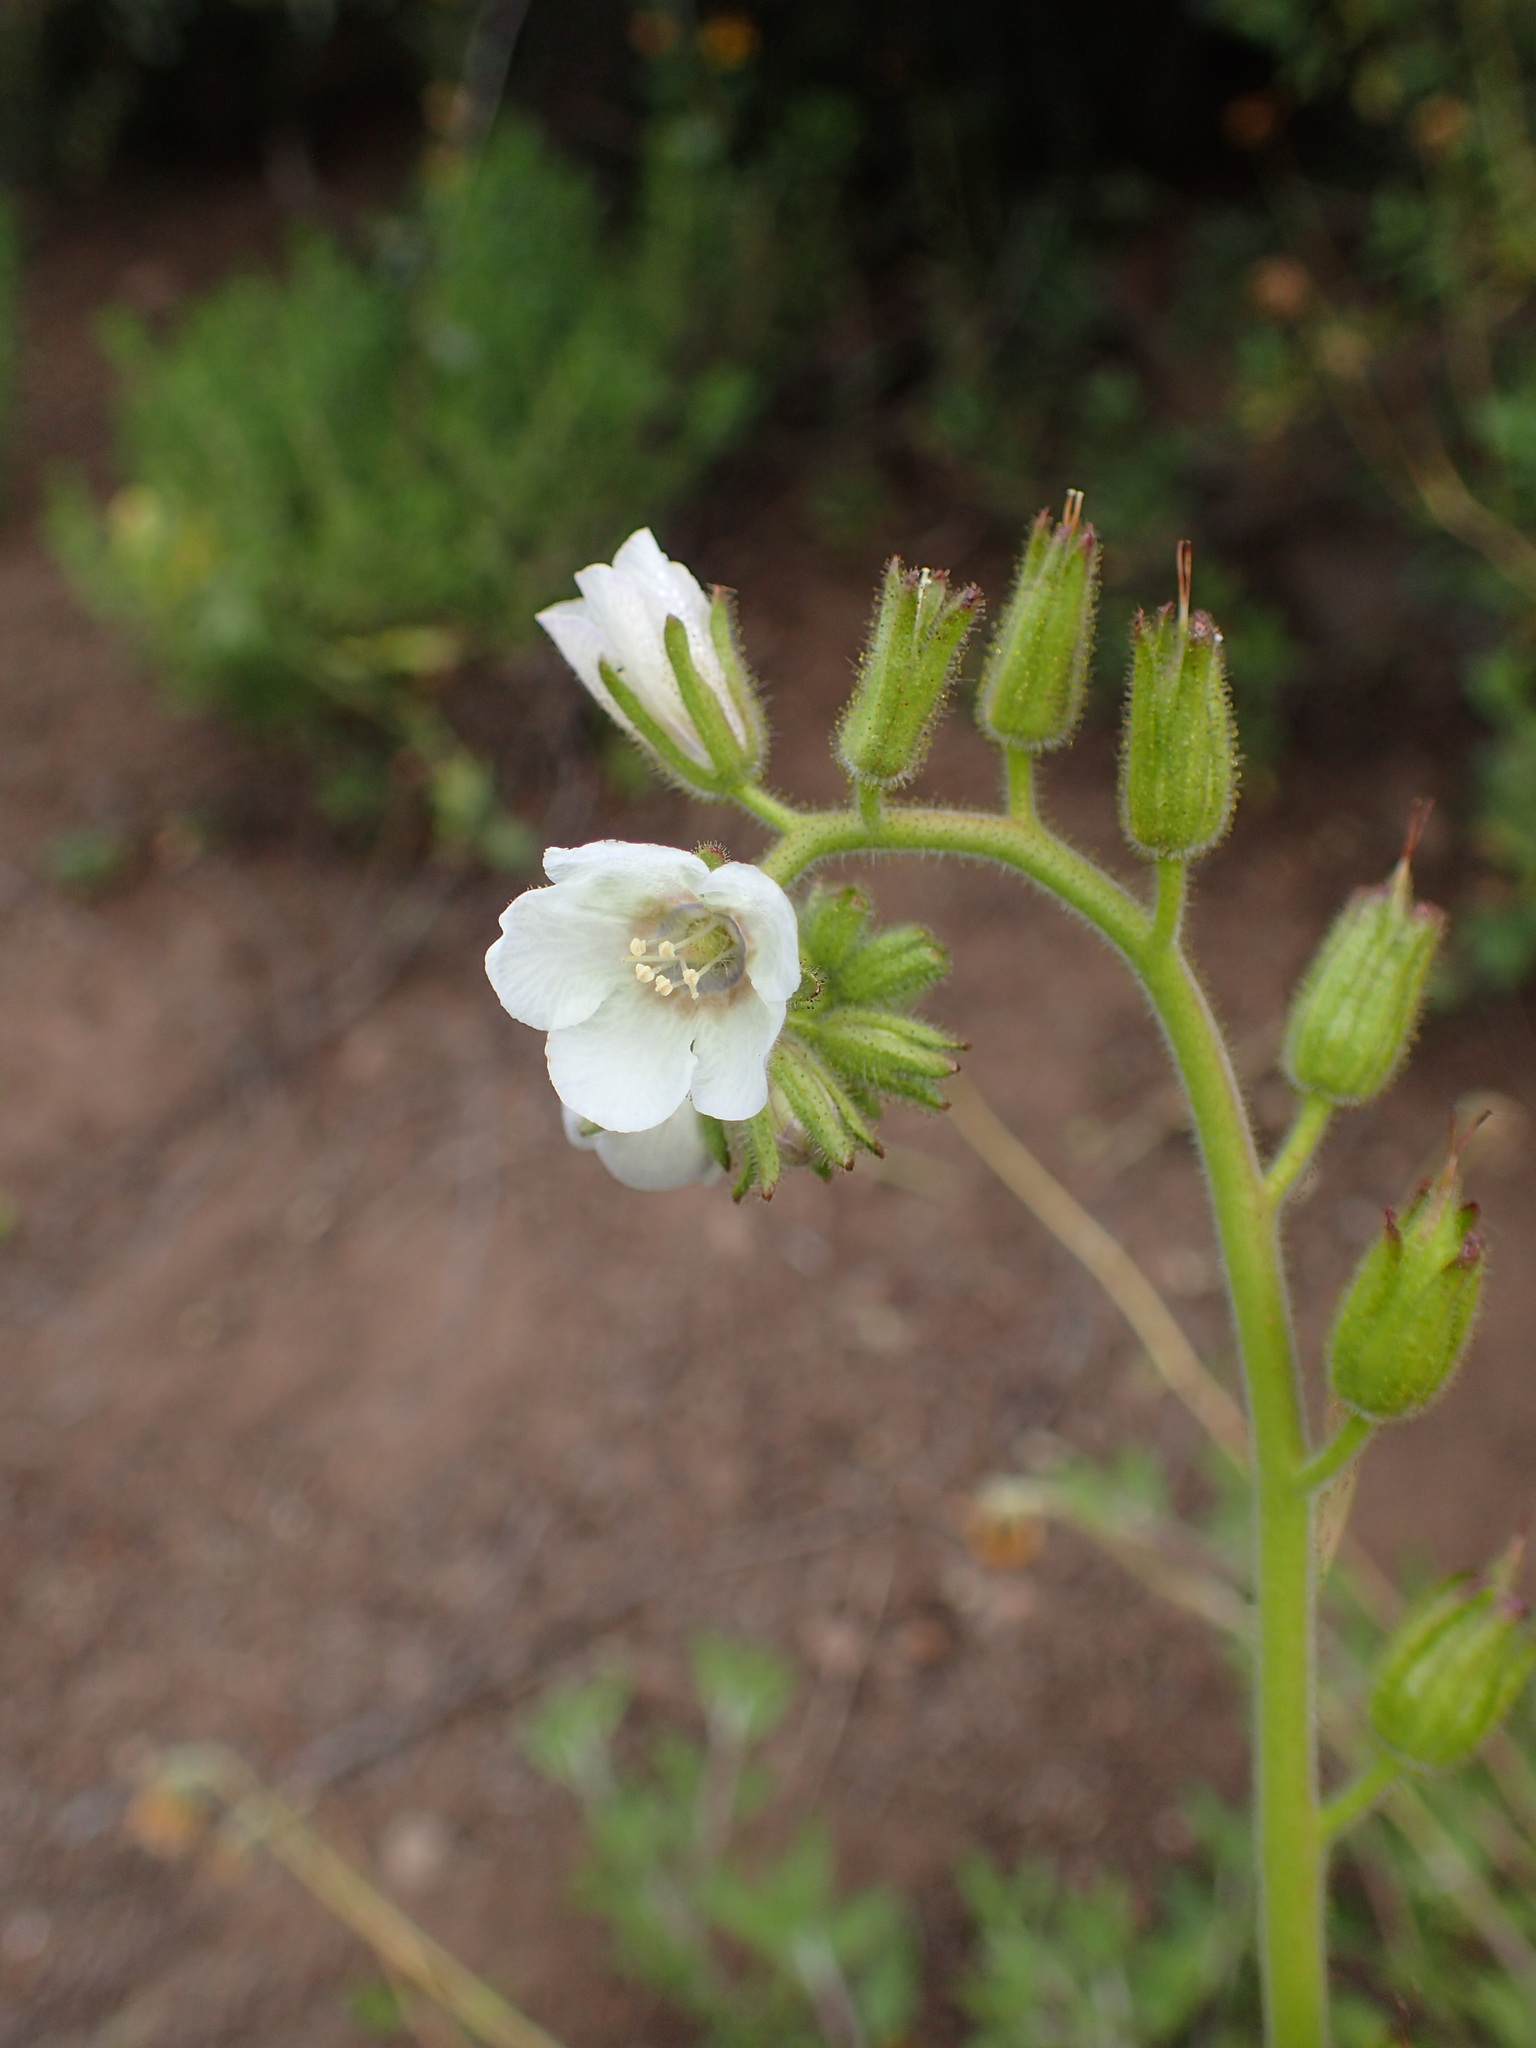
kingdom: Plantae
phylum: Tracheophyta
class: Magnoliopsida
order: Boraginales
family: Hydrophyllaceae
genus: Phacelia
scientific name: Phacelia viscida
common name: Sticky phacelia
